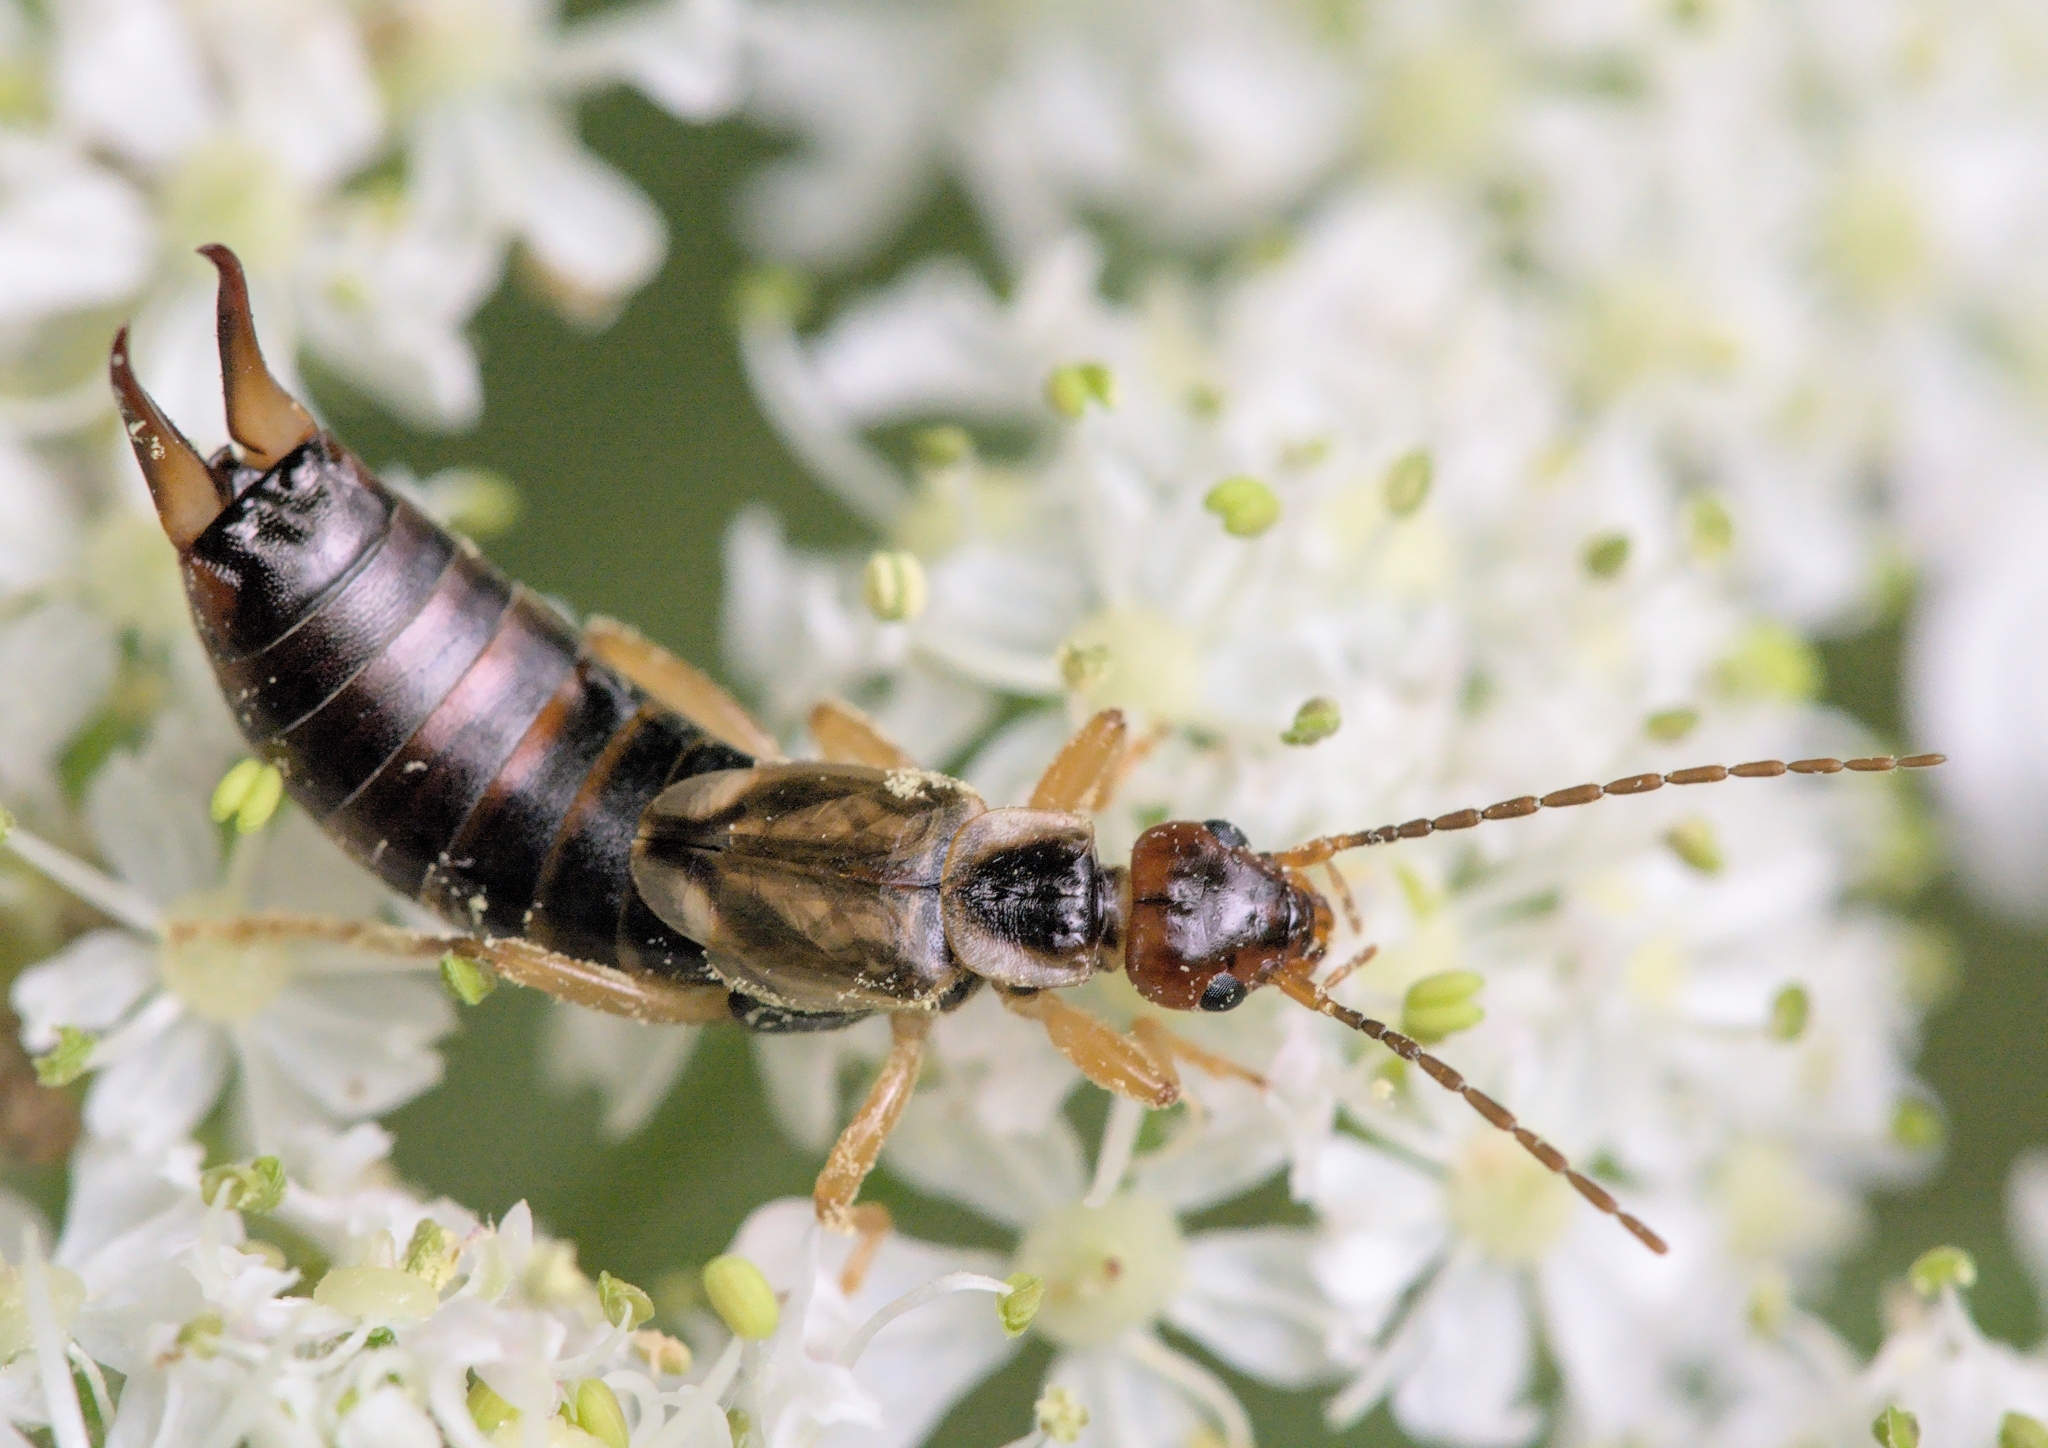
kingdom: Animalia
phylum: Arthropoda
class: Insecta
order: Dermaptera
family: Forficulidae
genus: Forficula
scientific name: Forficula
